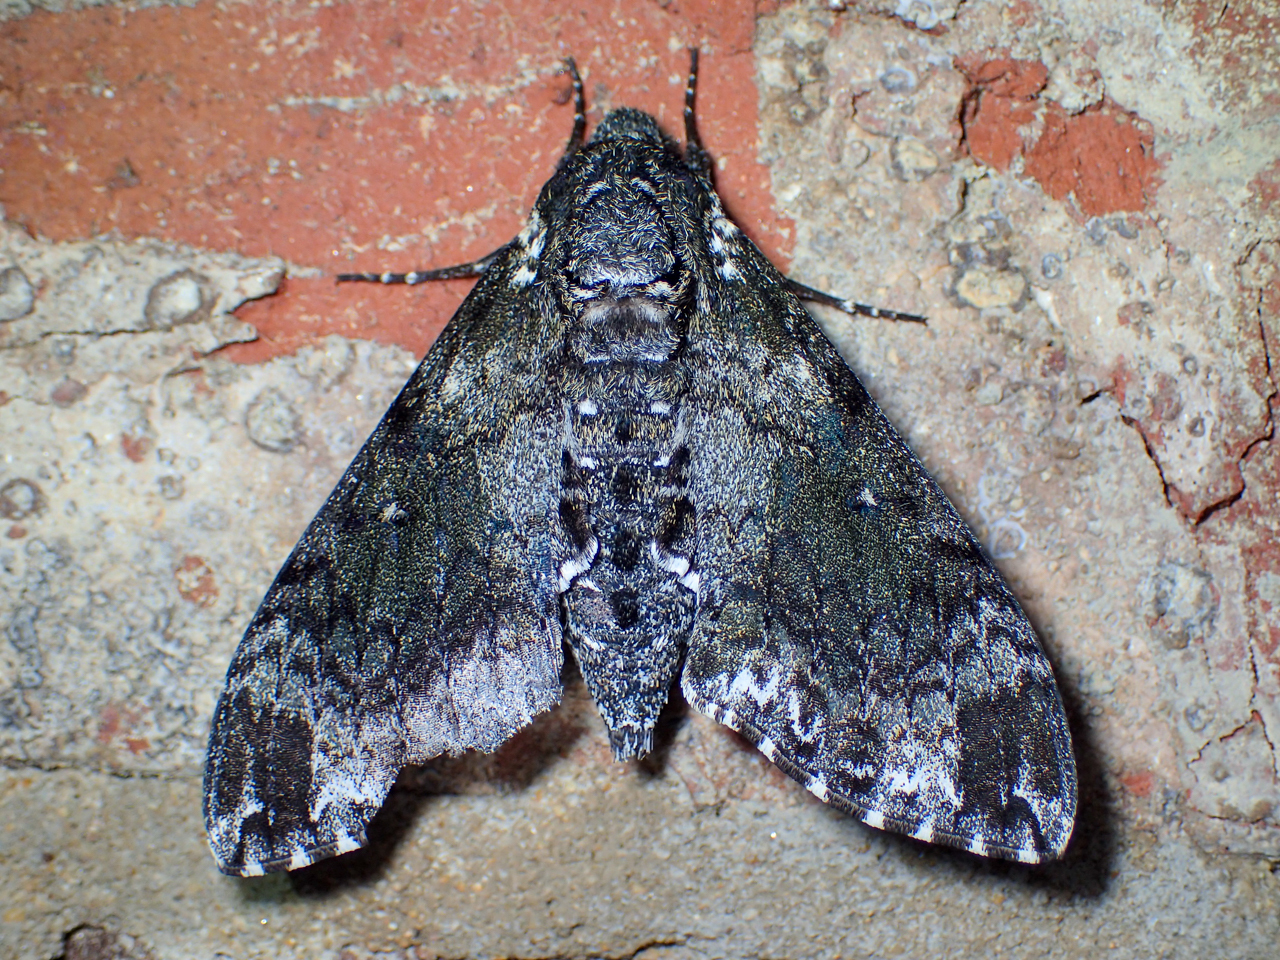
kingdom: Animalia
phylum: Arthropoda
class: Insecta
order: Lepidoptera
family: Sphingidae
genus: Dolba
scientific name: Dolba hyloeus
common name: Pawpaw sphinx
